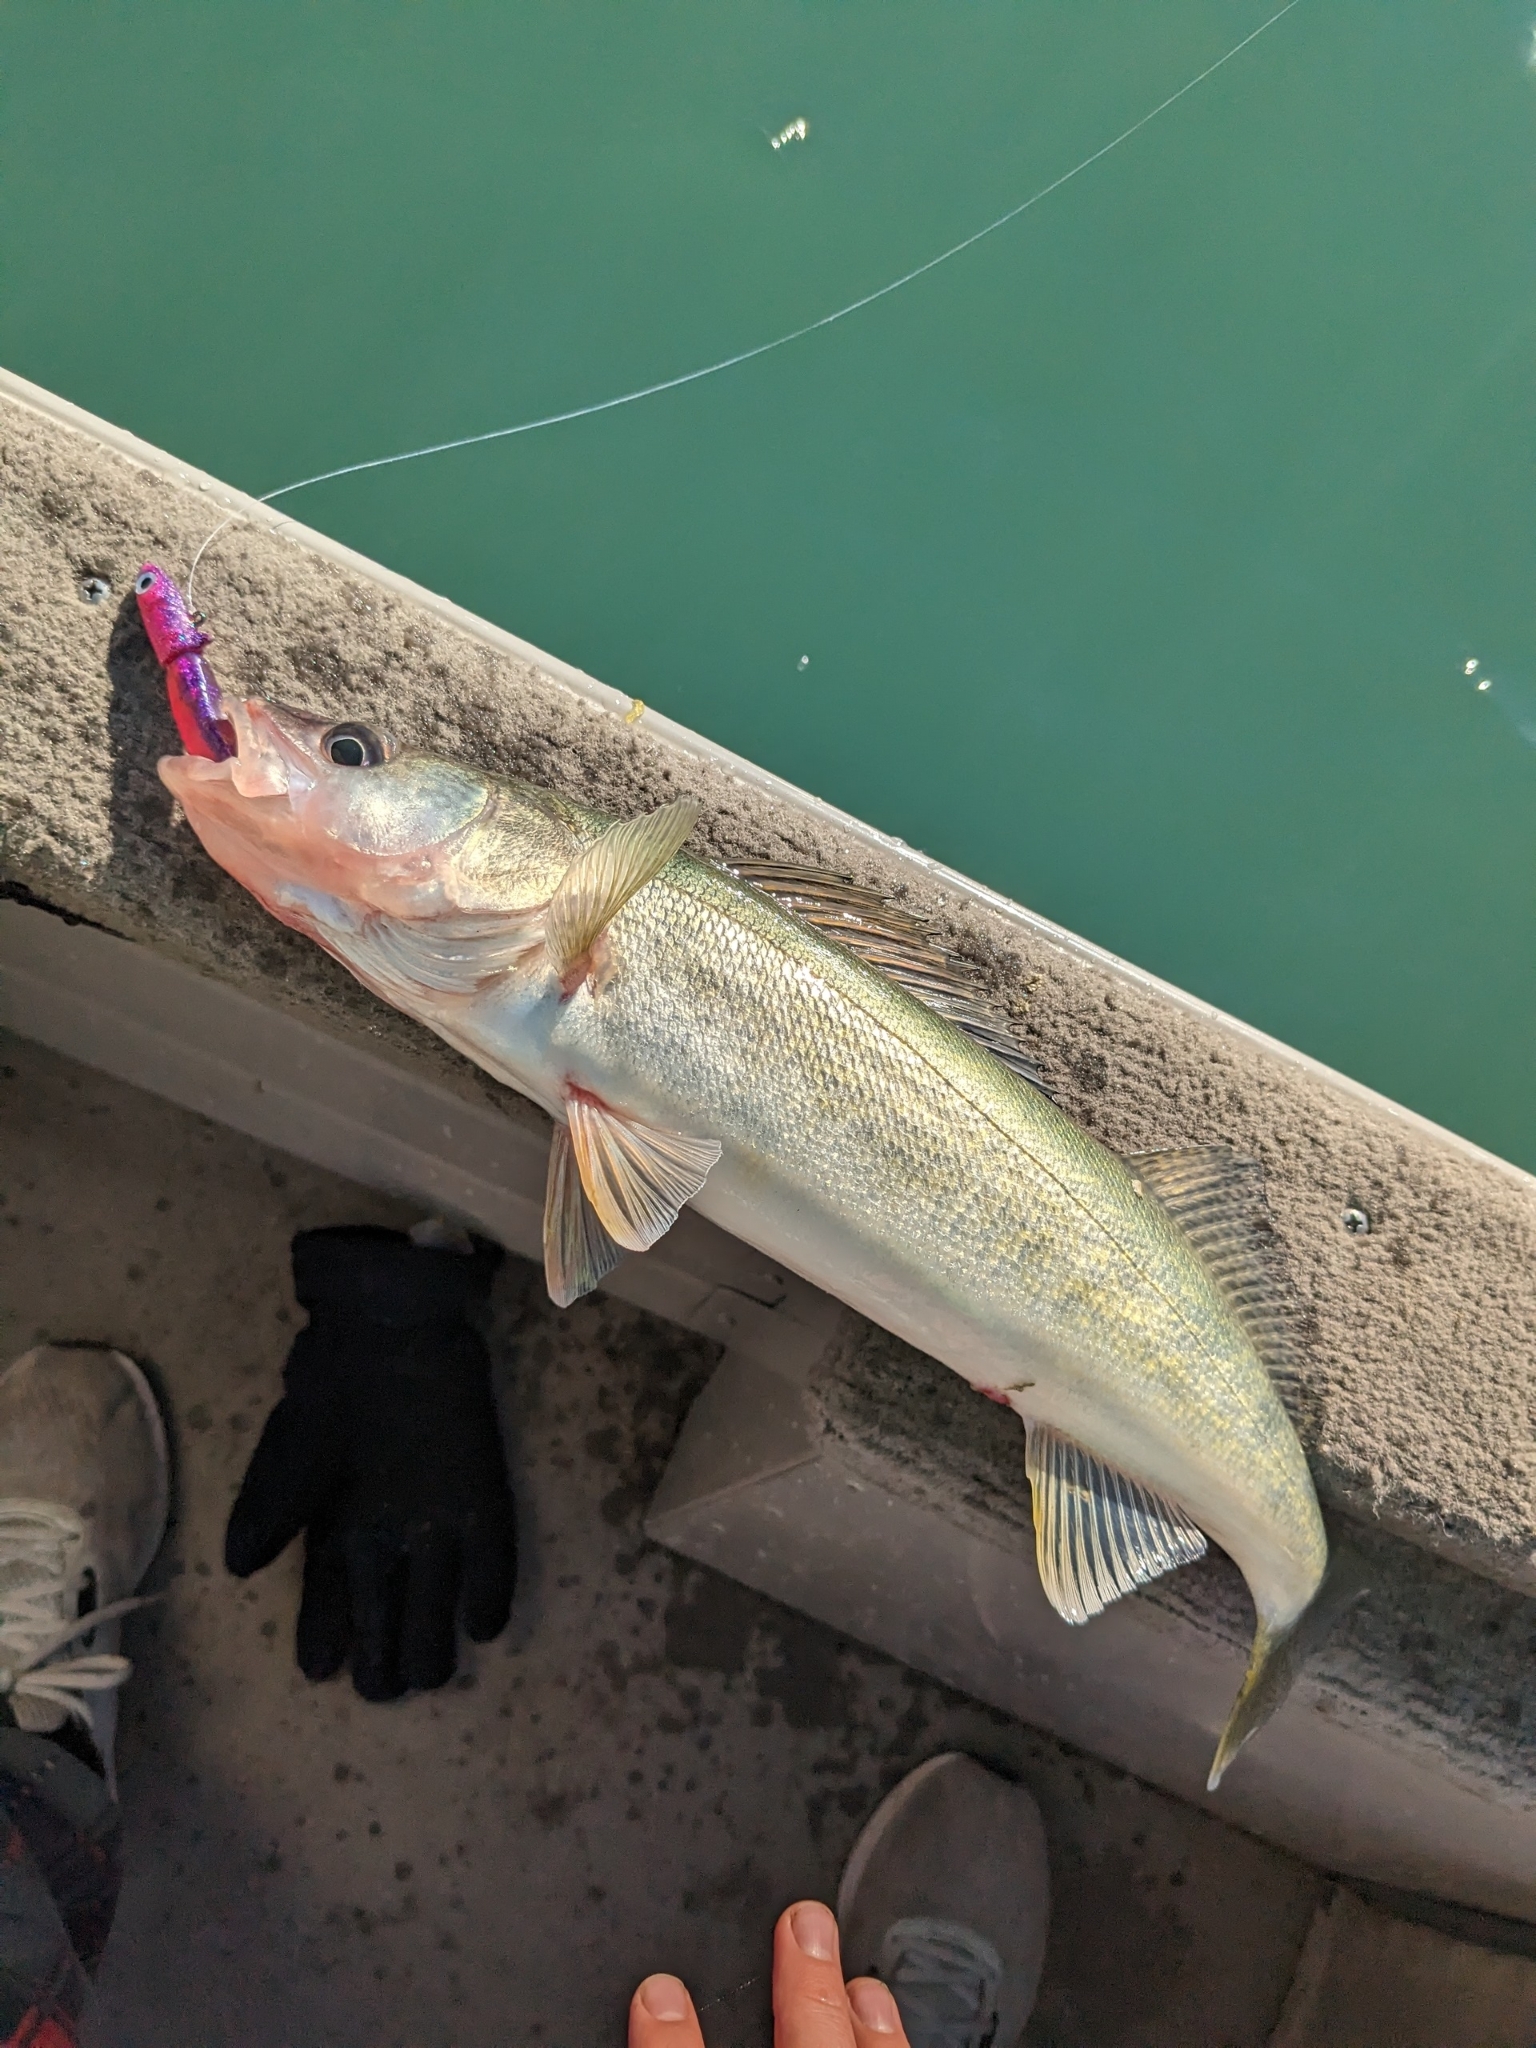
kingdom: Animalia
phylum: Chordata
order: Perciformes
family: Percidae
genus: Sander
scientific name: Sander vitreus
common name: Walleye
